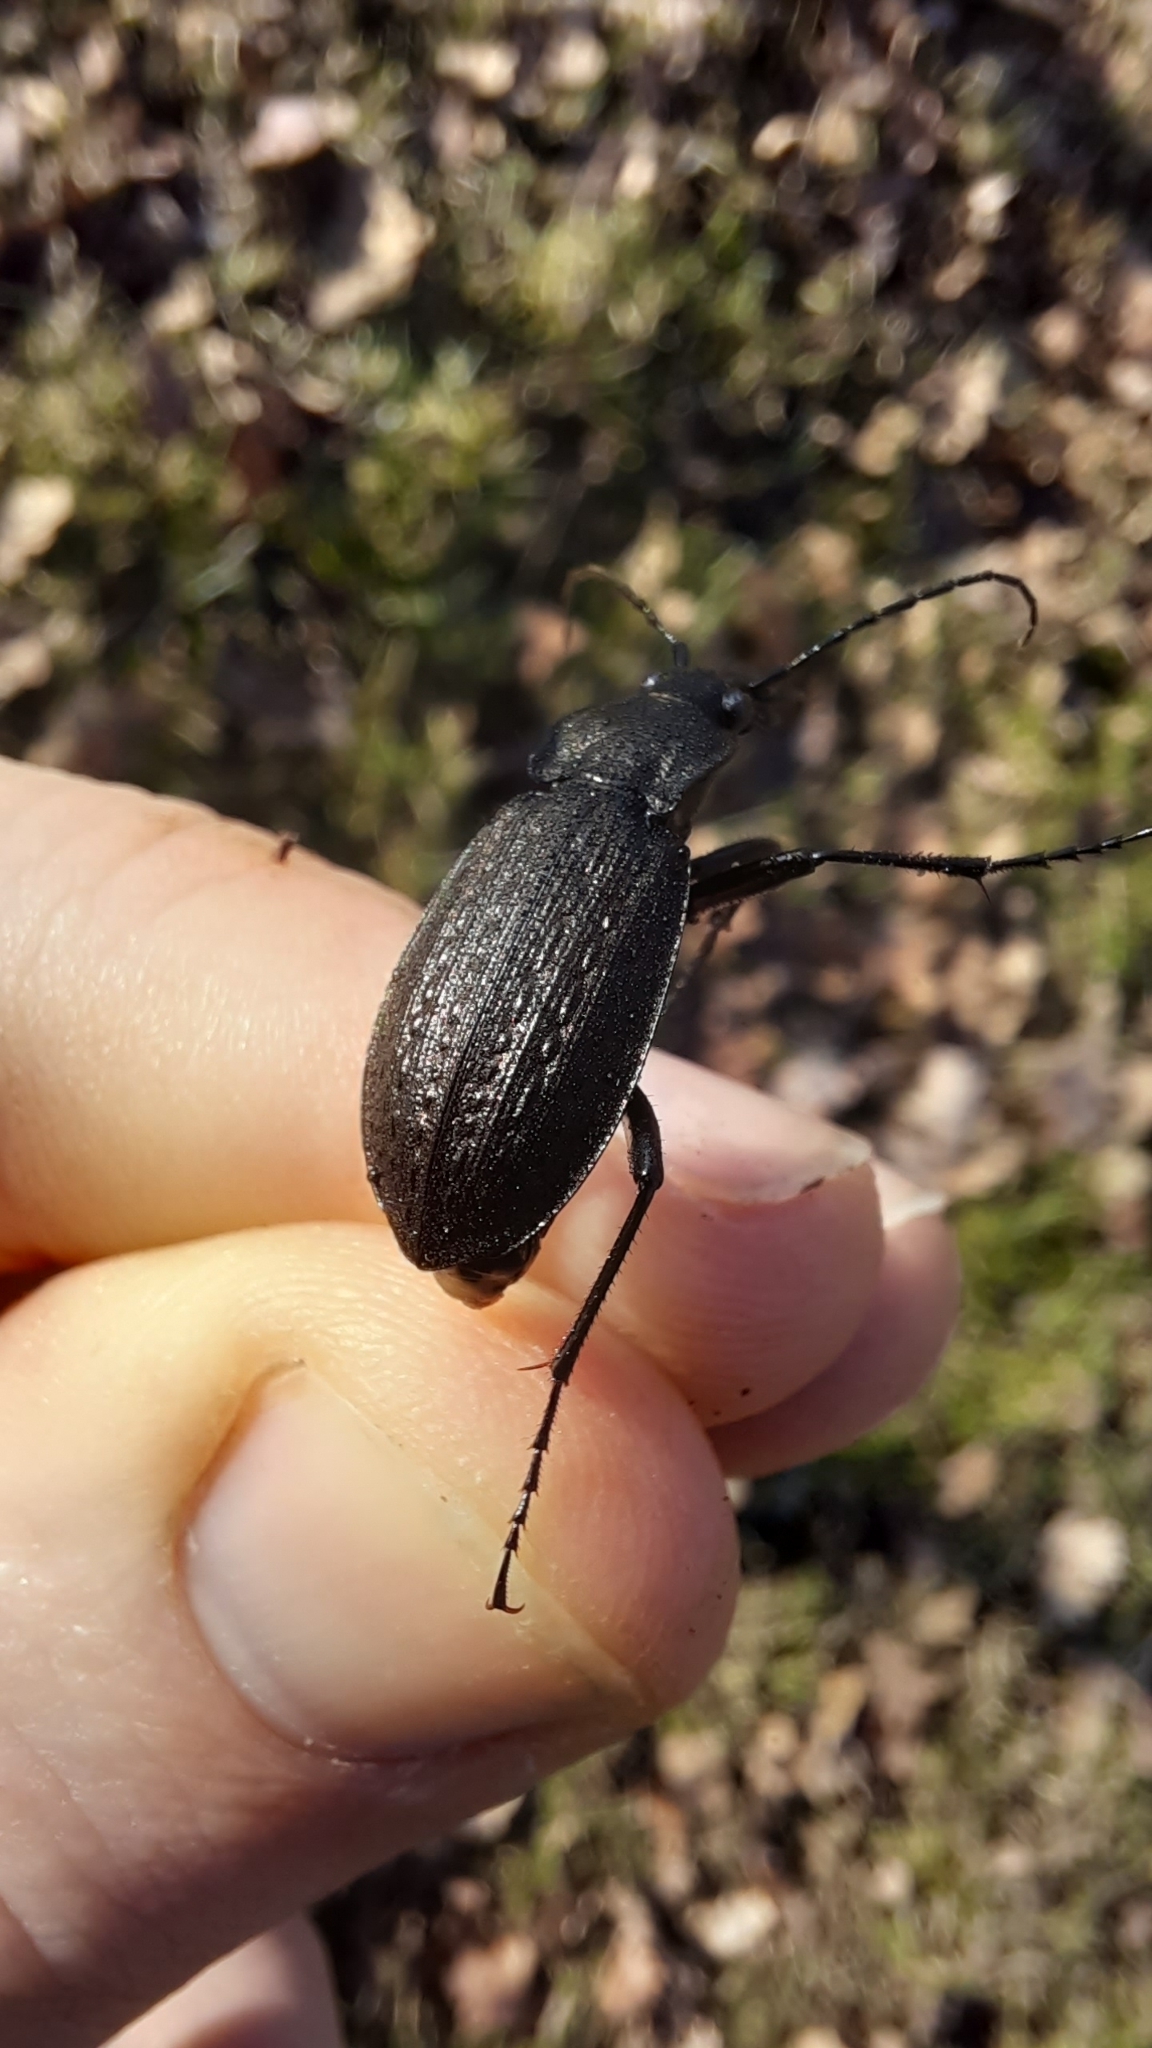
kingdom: Animalia
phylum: Arthropoda
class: Insecta
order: Coleoptera
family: Carabidae
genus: Carabus
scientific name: Carabus granulatus
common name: Granulate ground beetle
